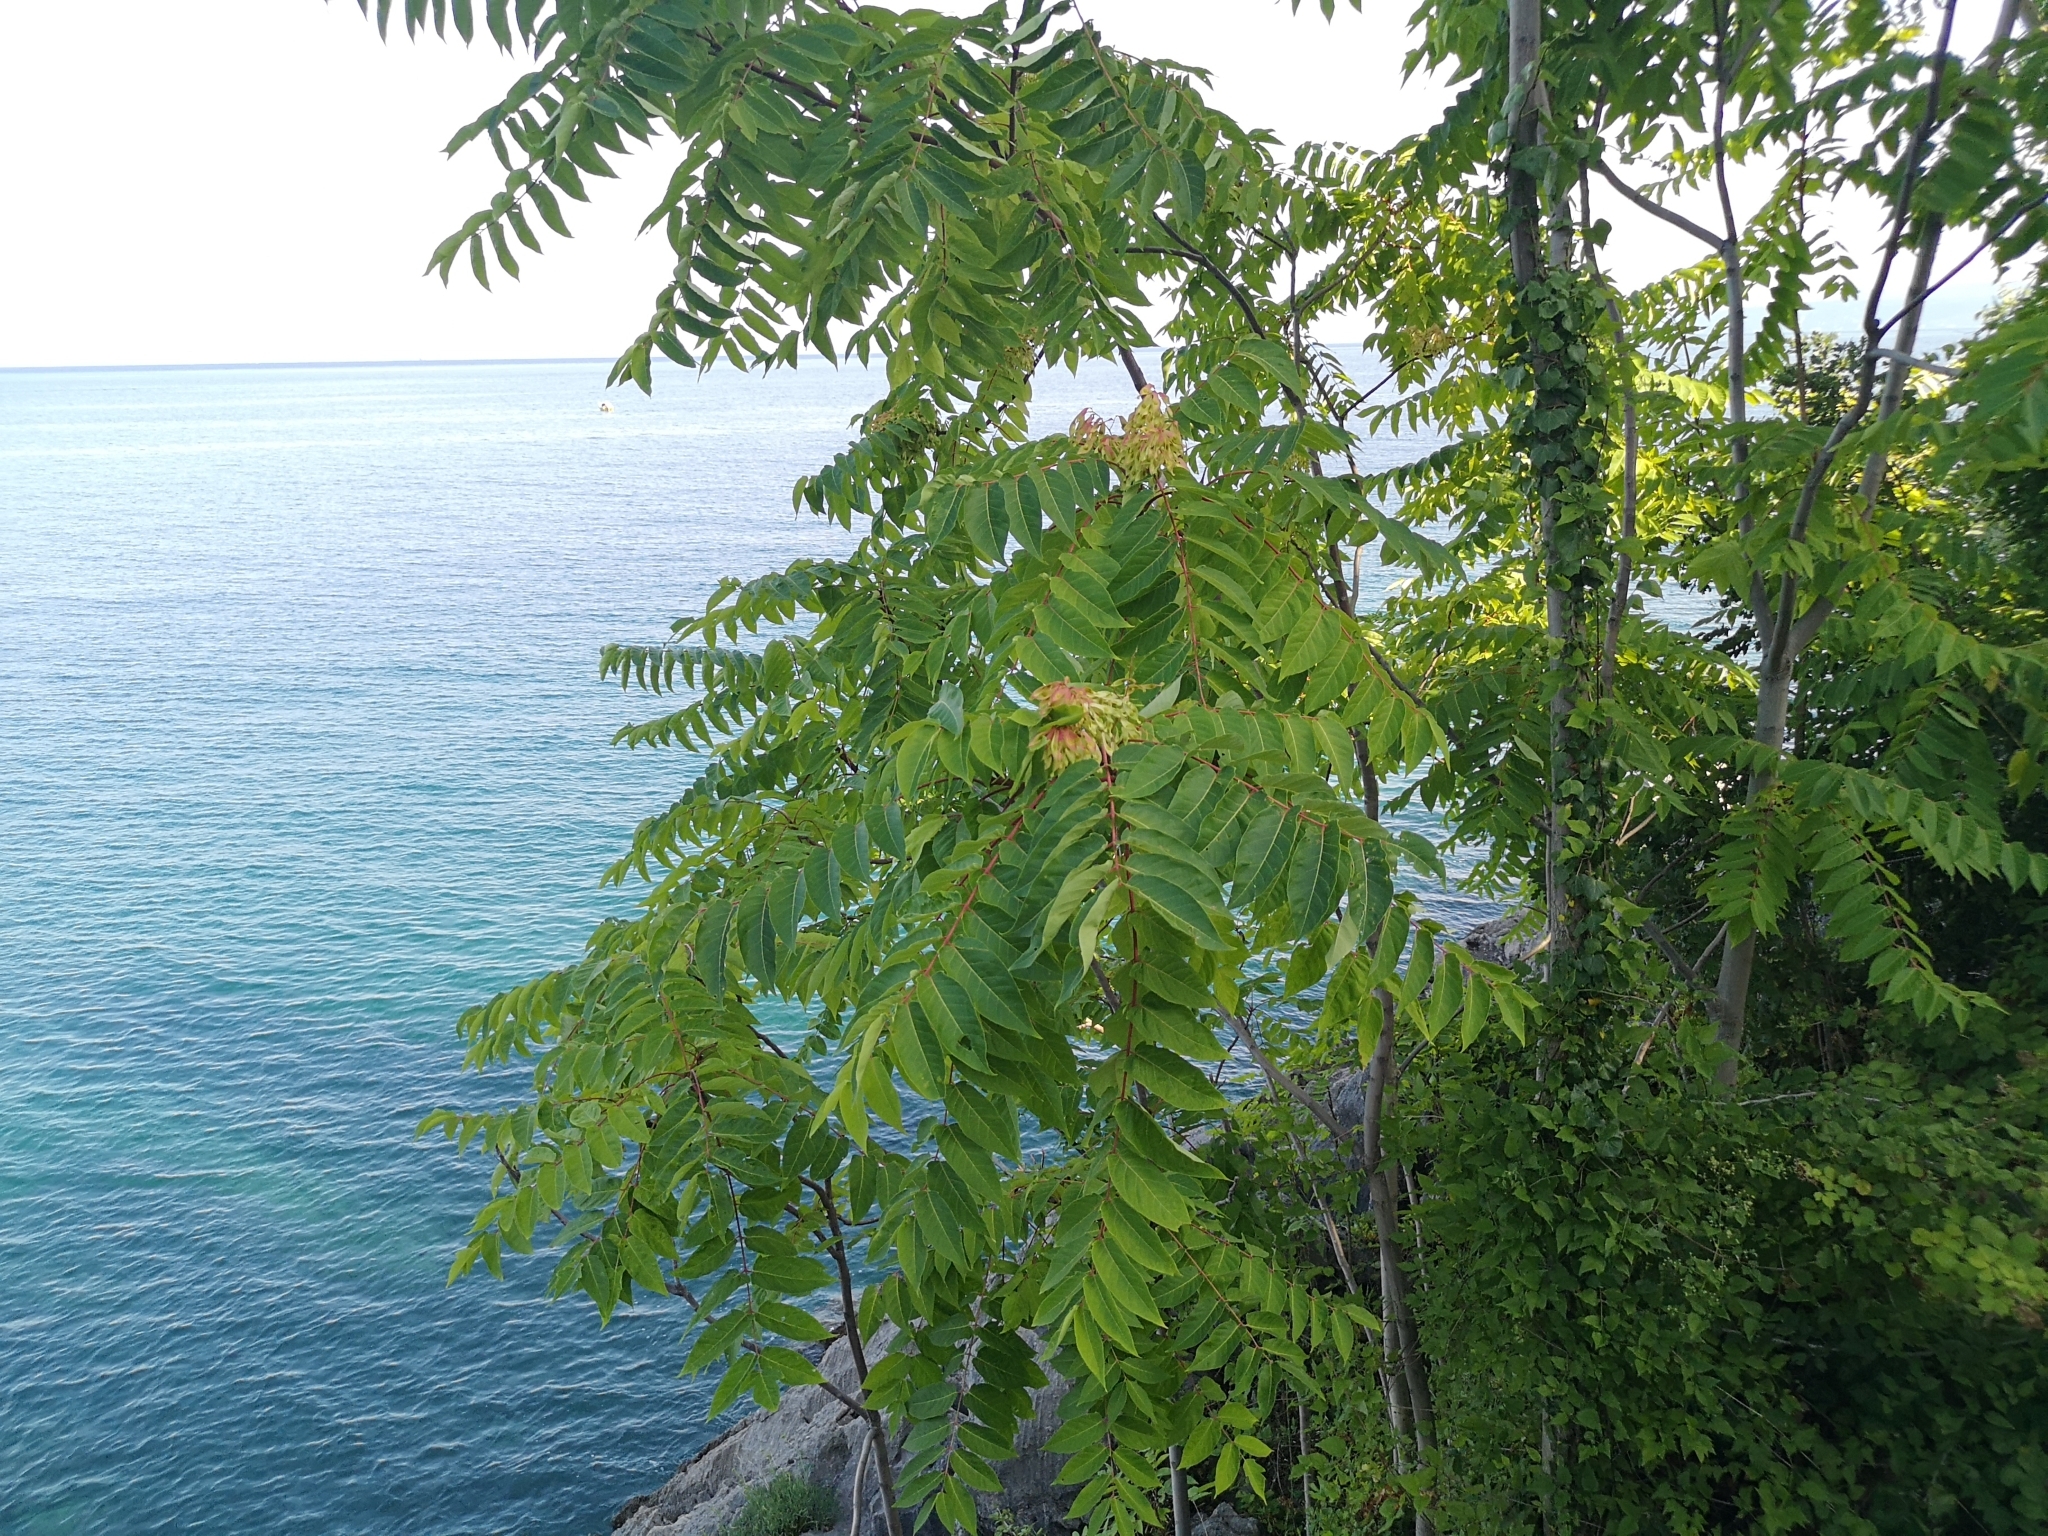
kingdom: Plantae
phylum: Tracheophyta
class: Magnoliopsida
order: Sapindales
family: Simaroubaceae
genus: Ailanthus
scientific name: Ailanthus altissima
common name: Tree-of-heaven
